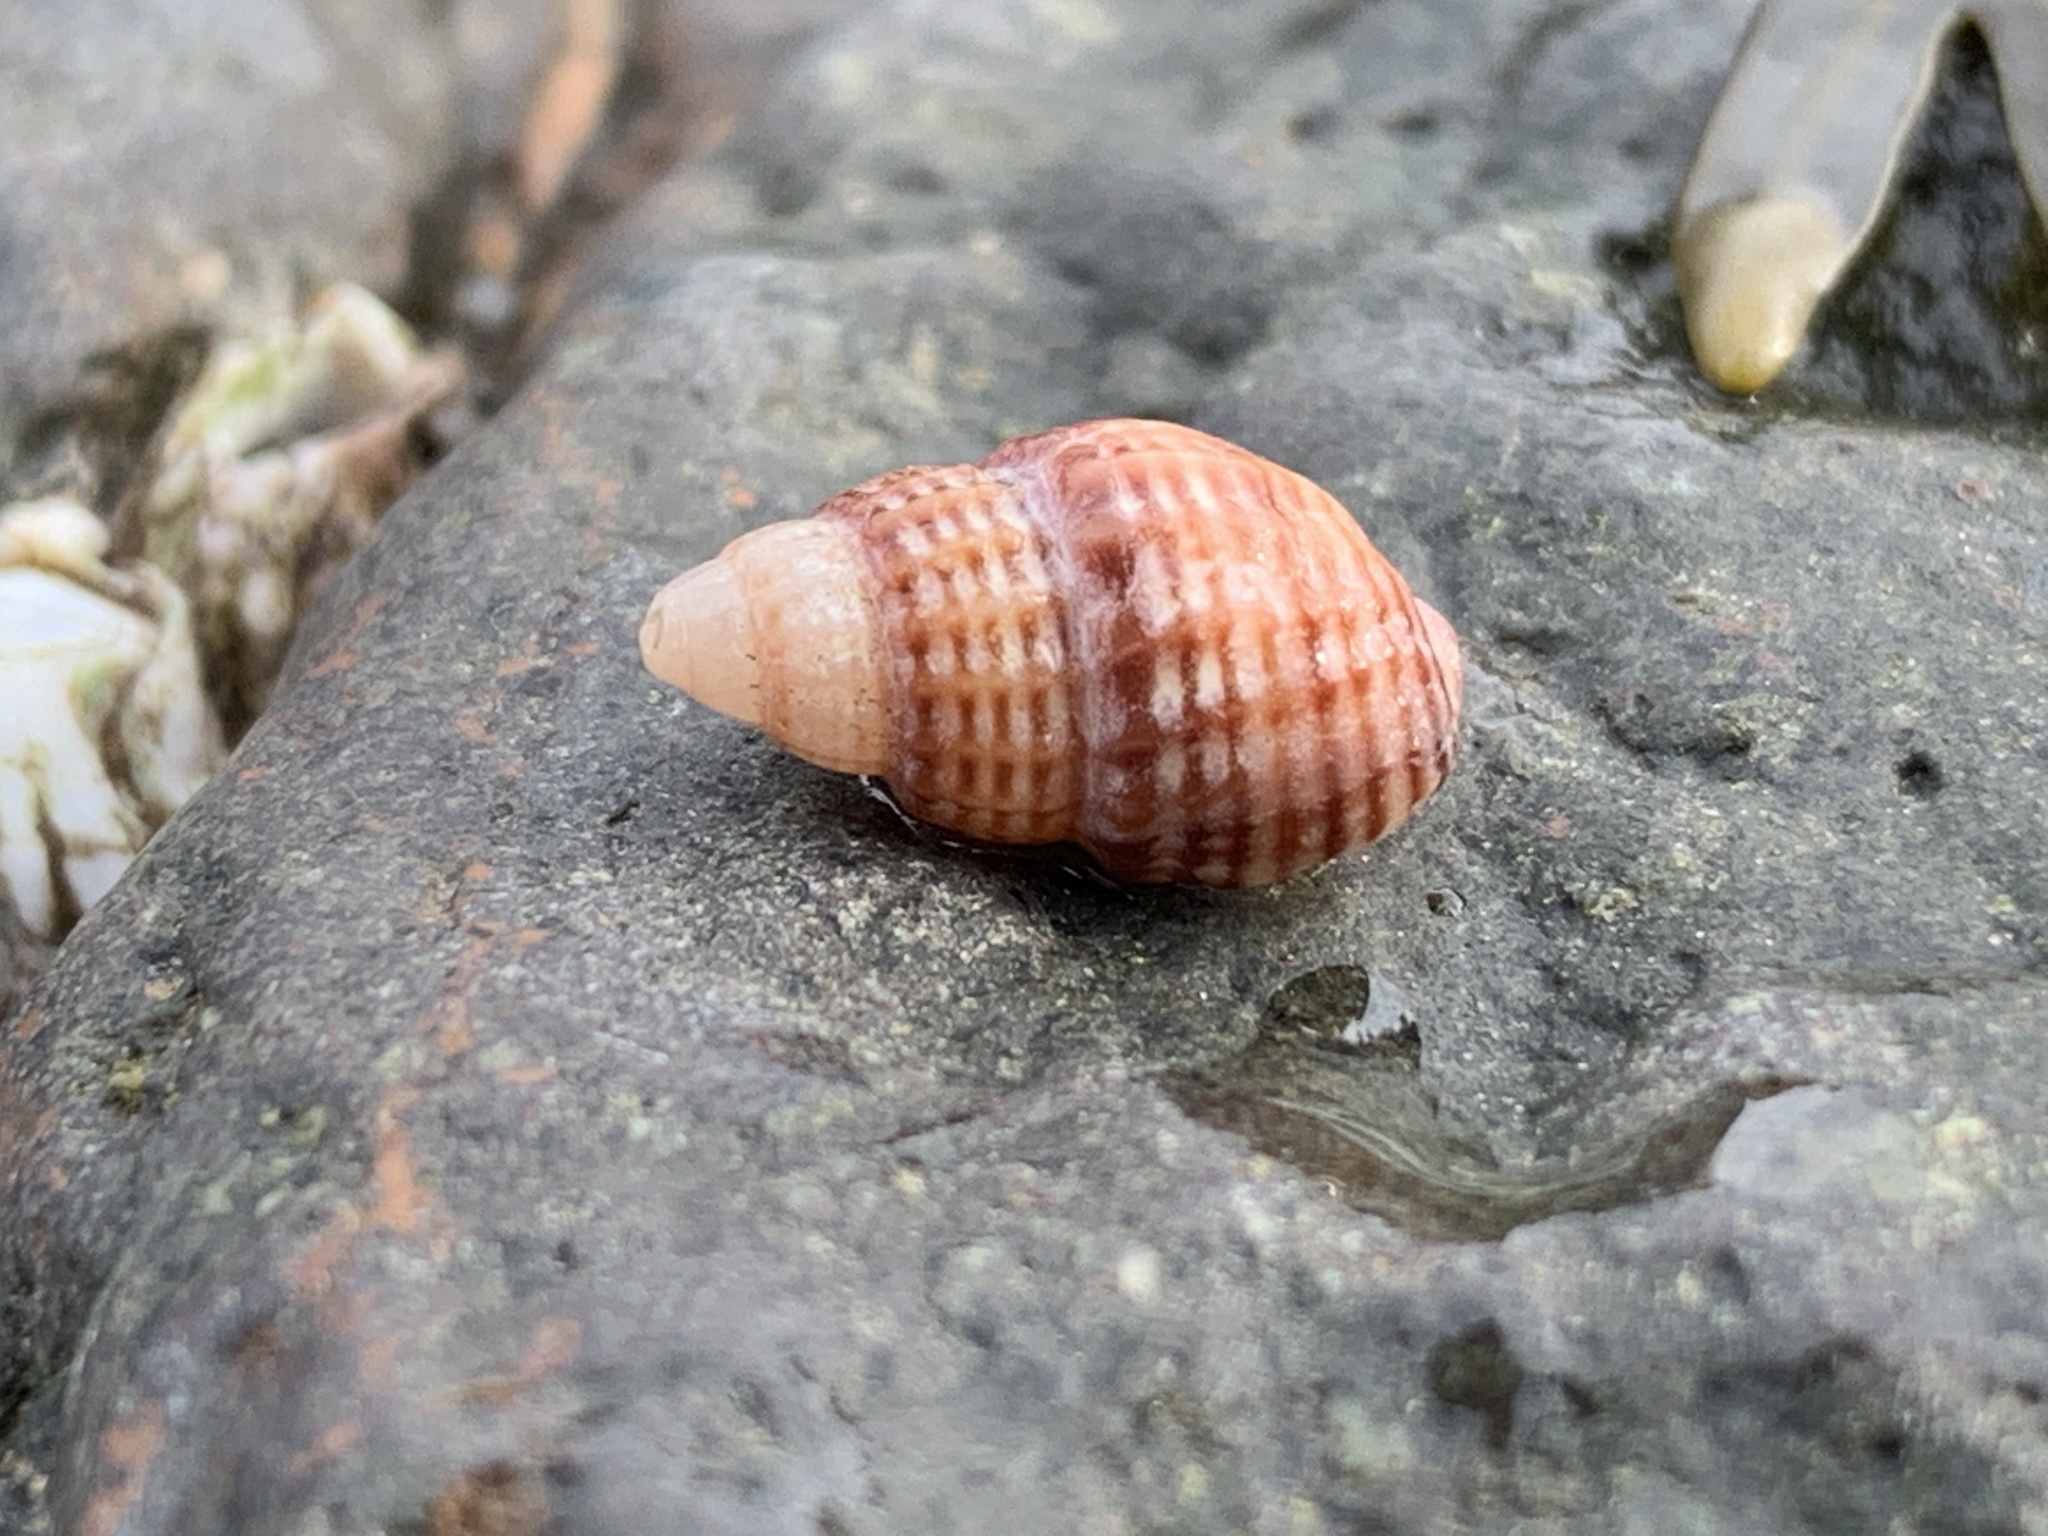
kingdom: Animalia
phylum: Mollusca
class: Gastropoda
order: Neogastropoda
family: Nassariidae
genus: Ilyanassa
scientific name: Ilyanassa trivittata
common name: Three-line mudsnail
